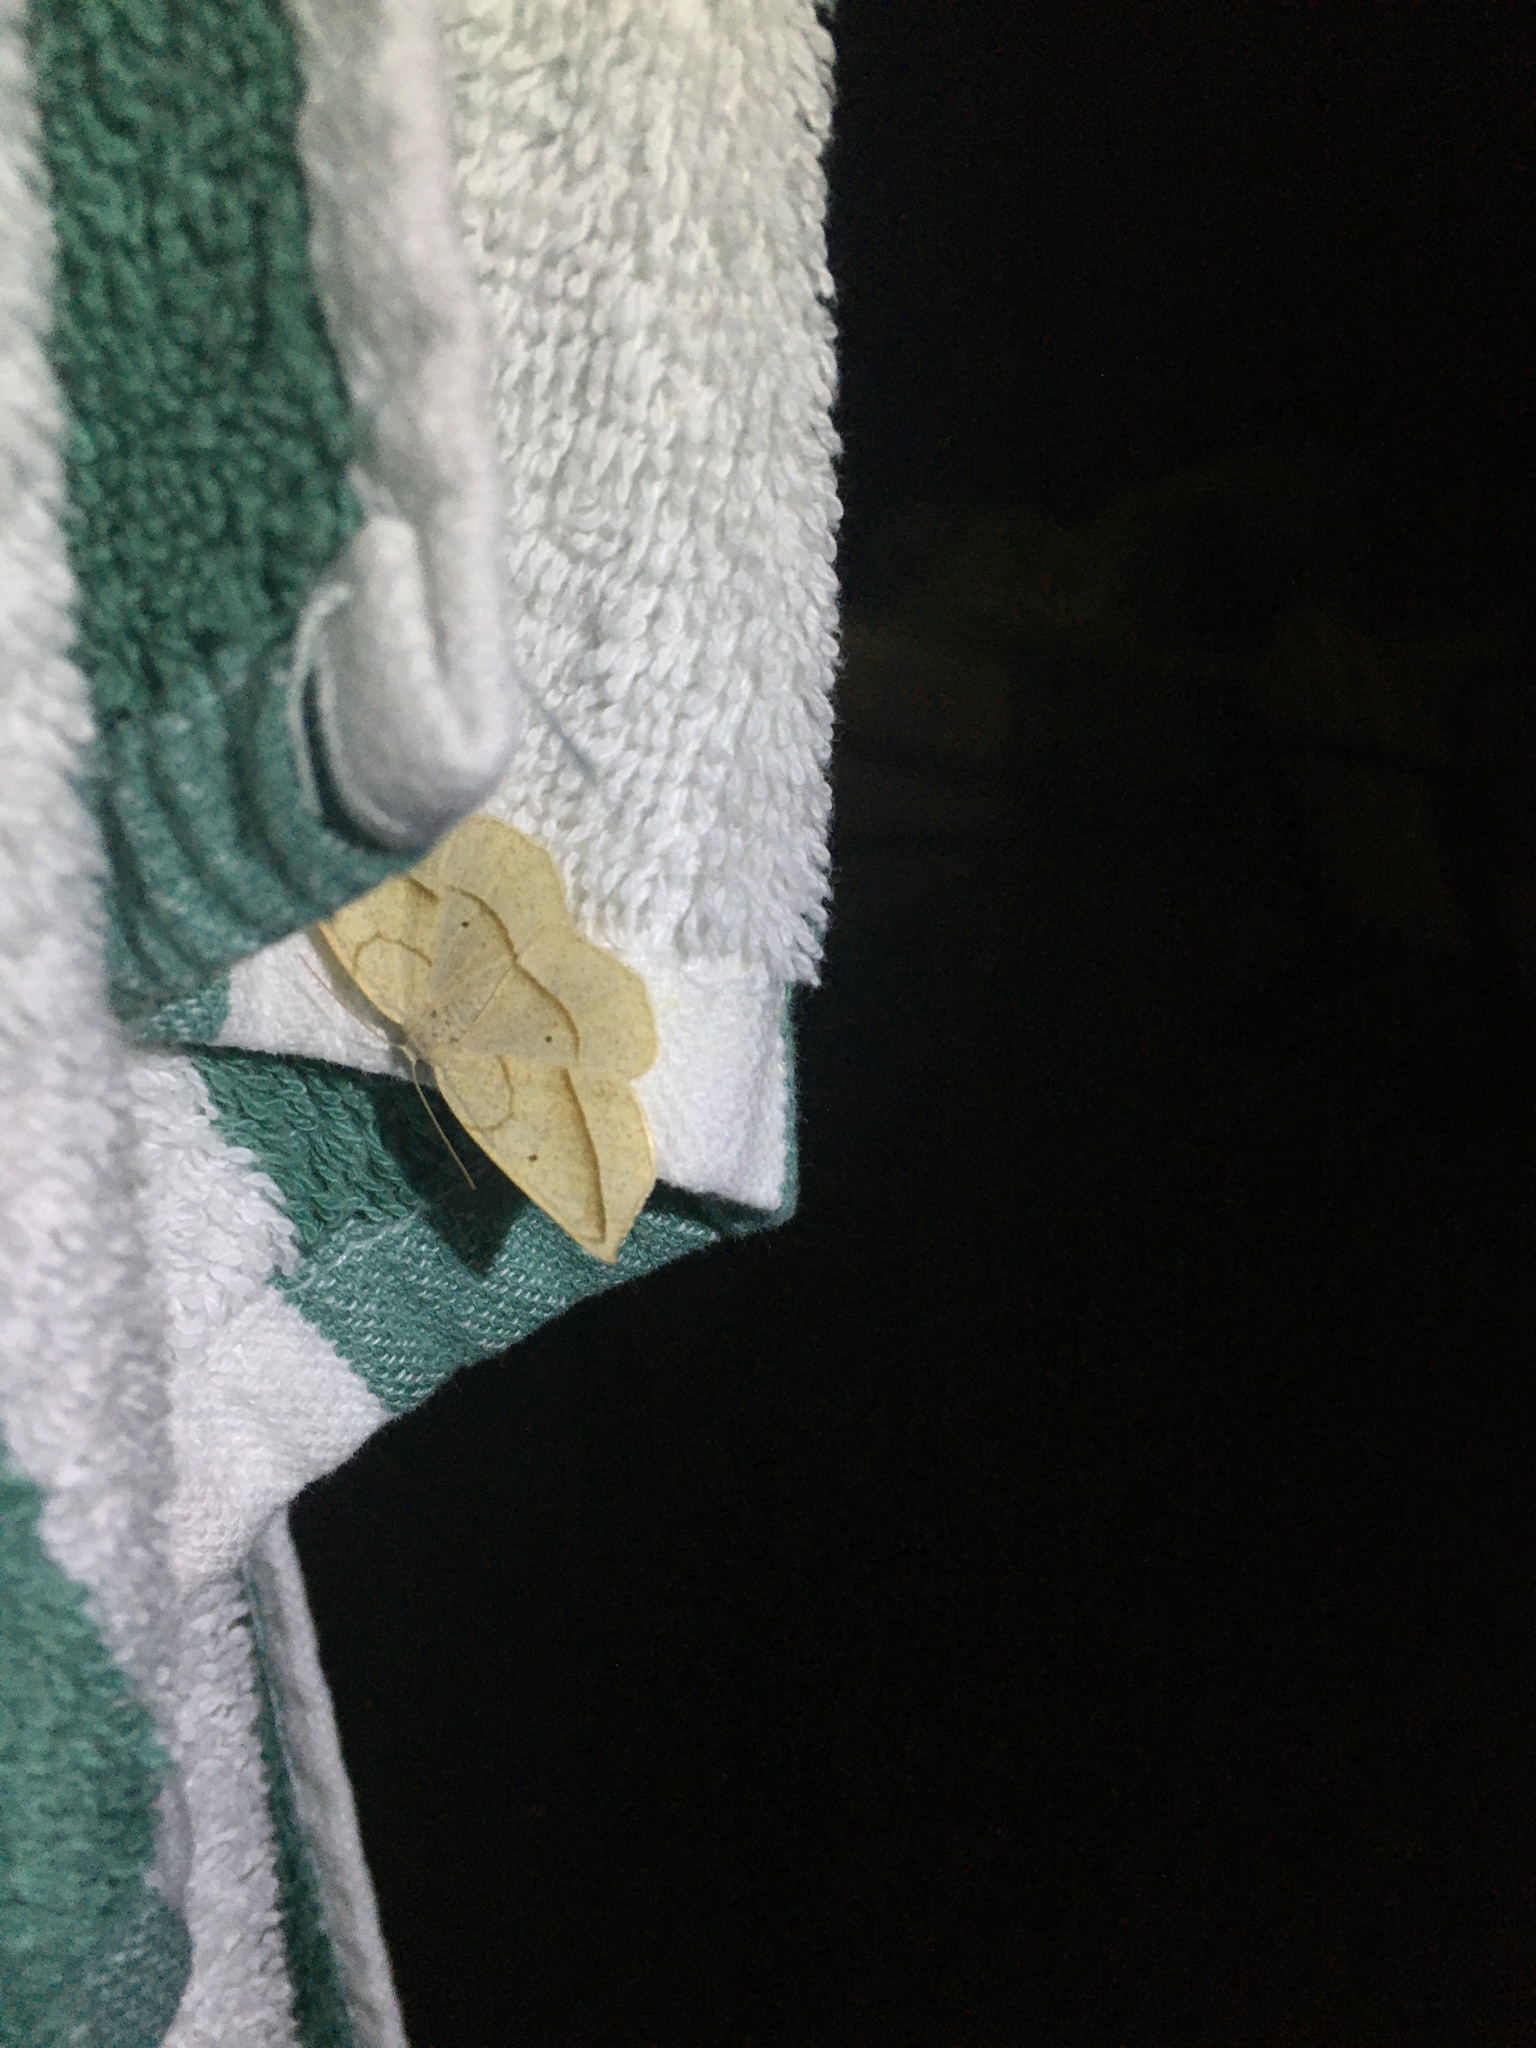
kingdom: Animalia
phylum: Arthropoda
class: Insecta
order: Lepidoptera
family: Geometridae
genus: Eusarca
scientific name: Eusarca confusaria
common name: Confused eusarca
